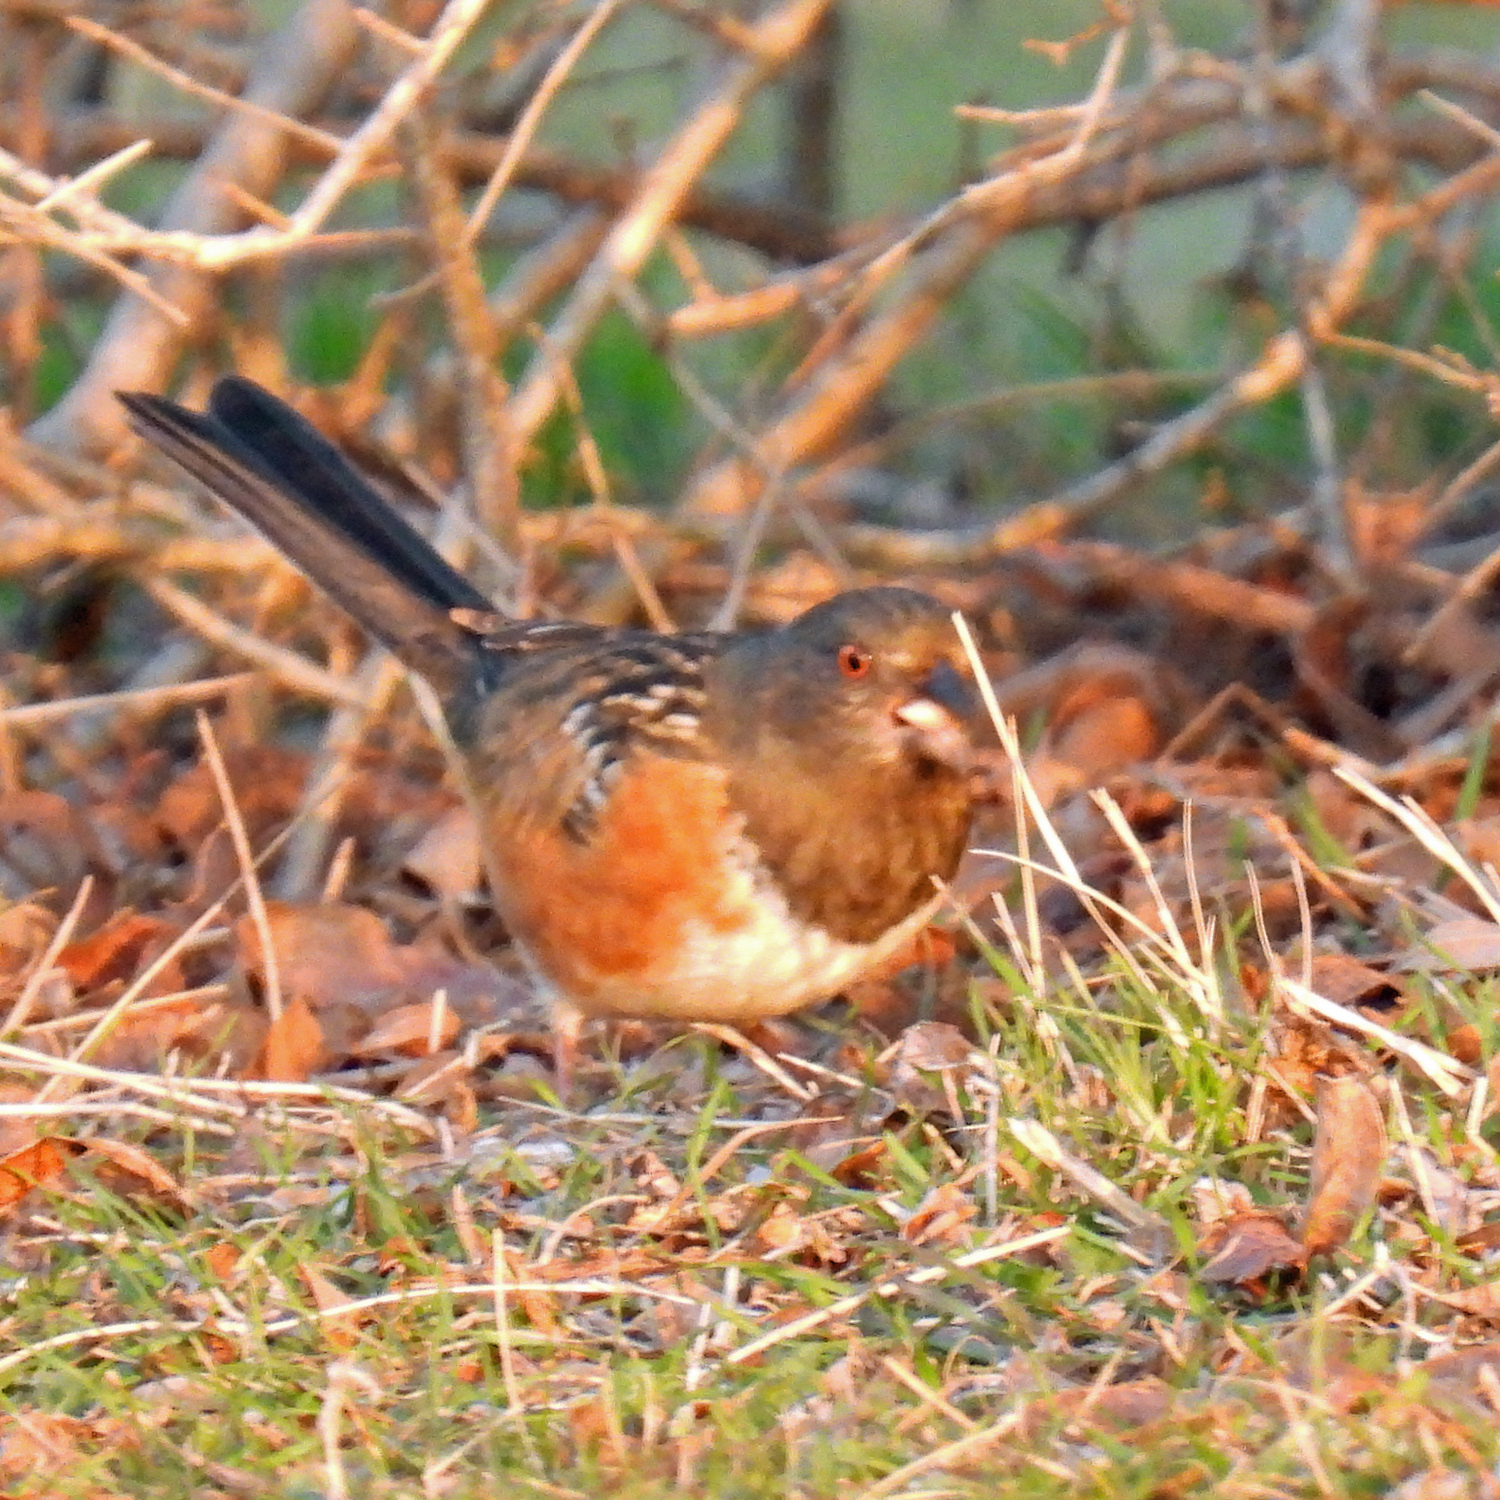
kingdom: Animalia
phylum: Chordata
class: Aves
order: Passeriformes
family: Passerellidae
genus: Pipilo
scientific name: Pipilo maculatus
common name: Spotted towhee
